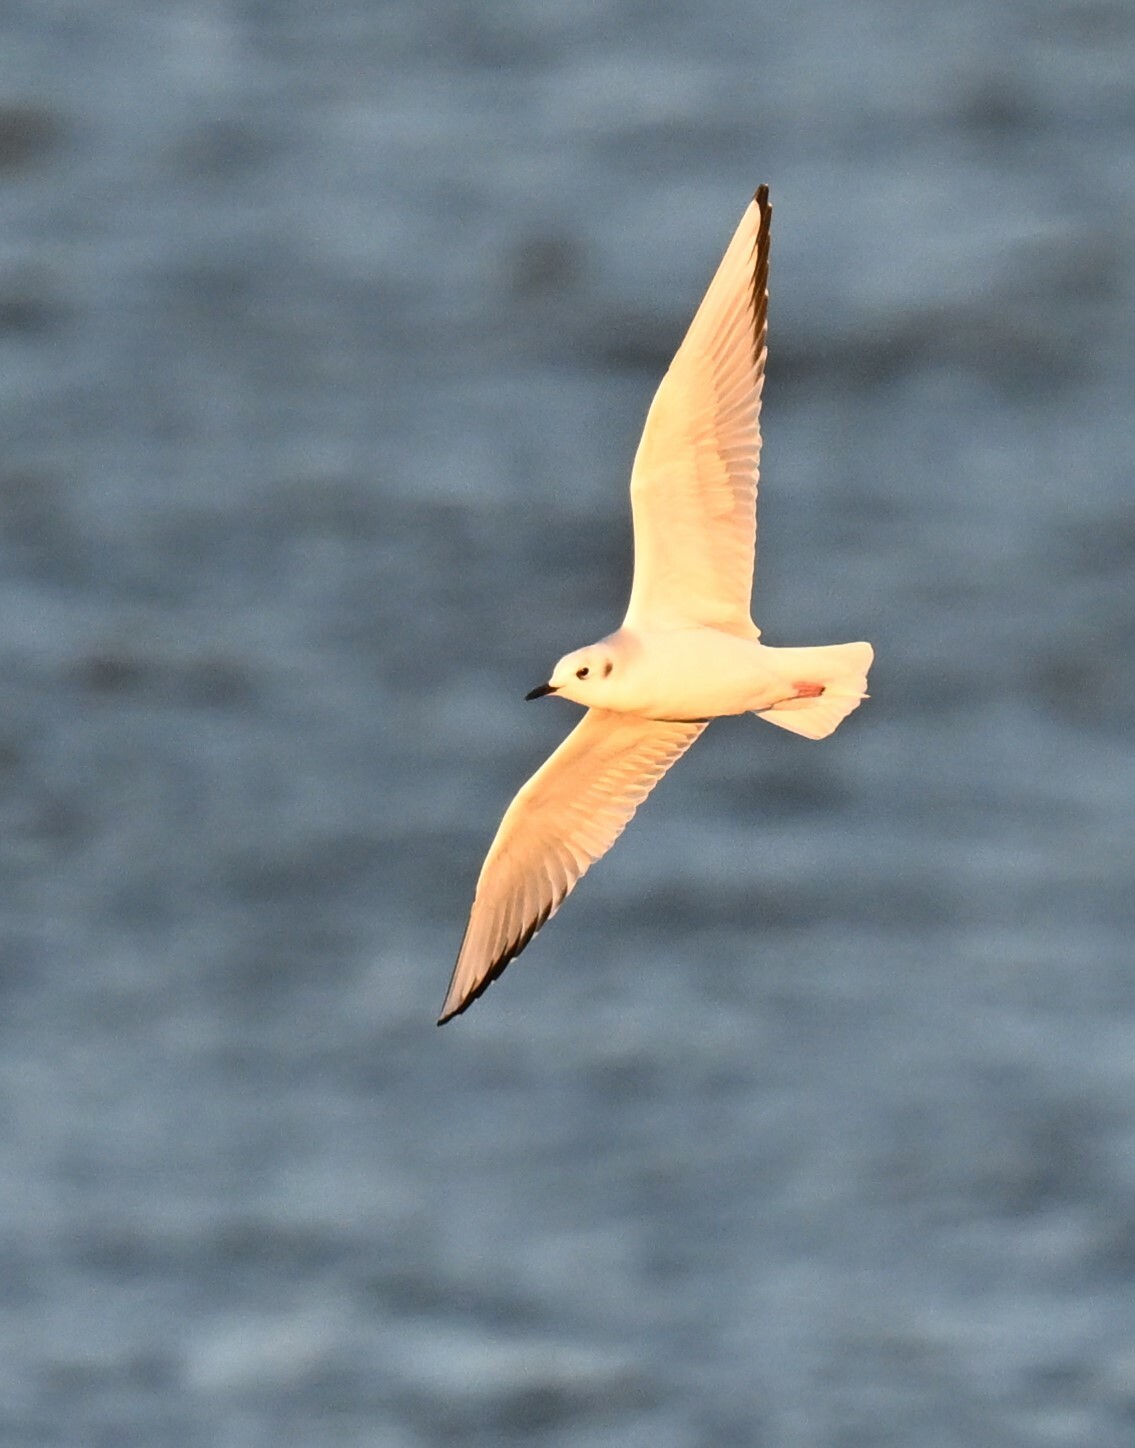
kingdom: Animalia
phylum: Chordata
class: Aves
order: Charadriiformes
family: Laridae
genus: Chroicocephalus
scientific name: Chroicocephalus philadelphia
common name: Bonaparte's gull
